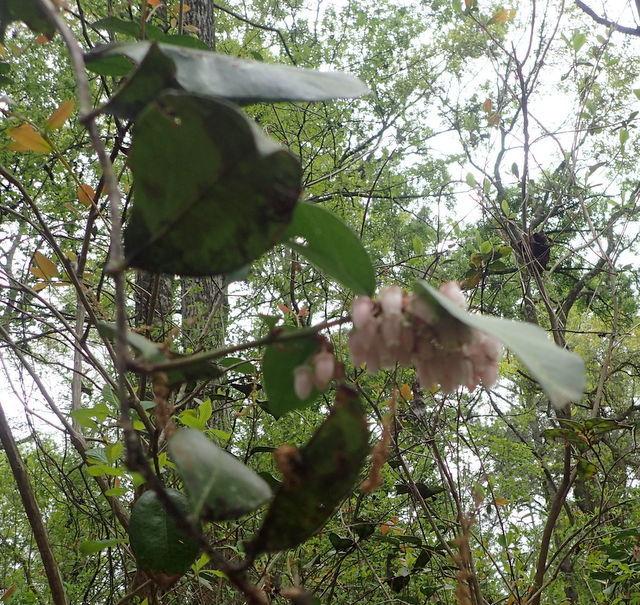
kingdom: Plantae
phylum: Tracheophyta
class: Magnoliopsida
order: Ericales
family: Ericaceae
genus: Lyonia
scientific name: Lyonia lucida
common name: Fetterbush
